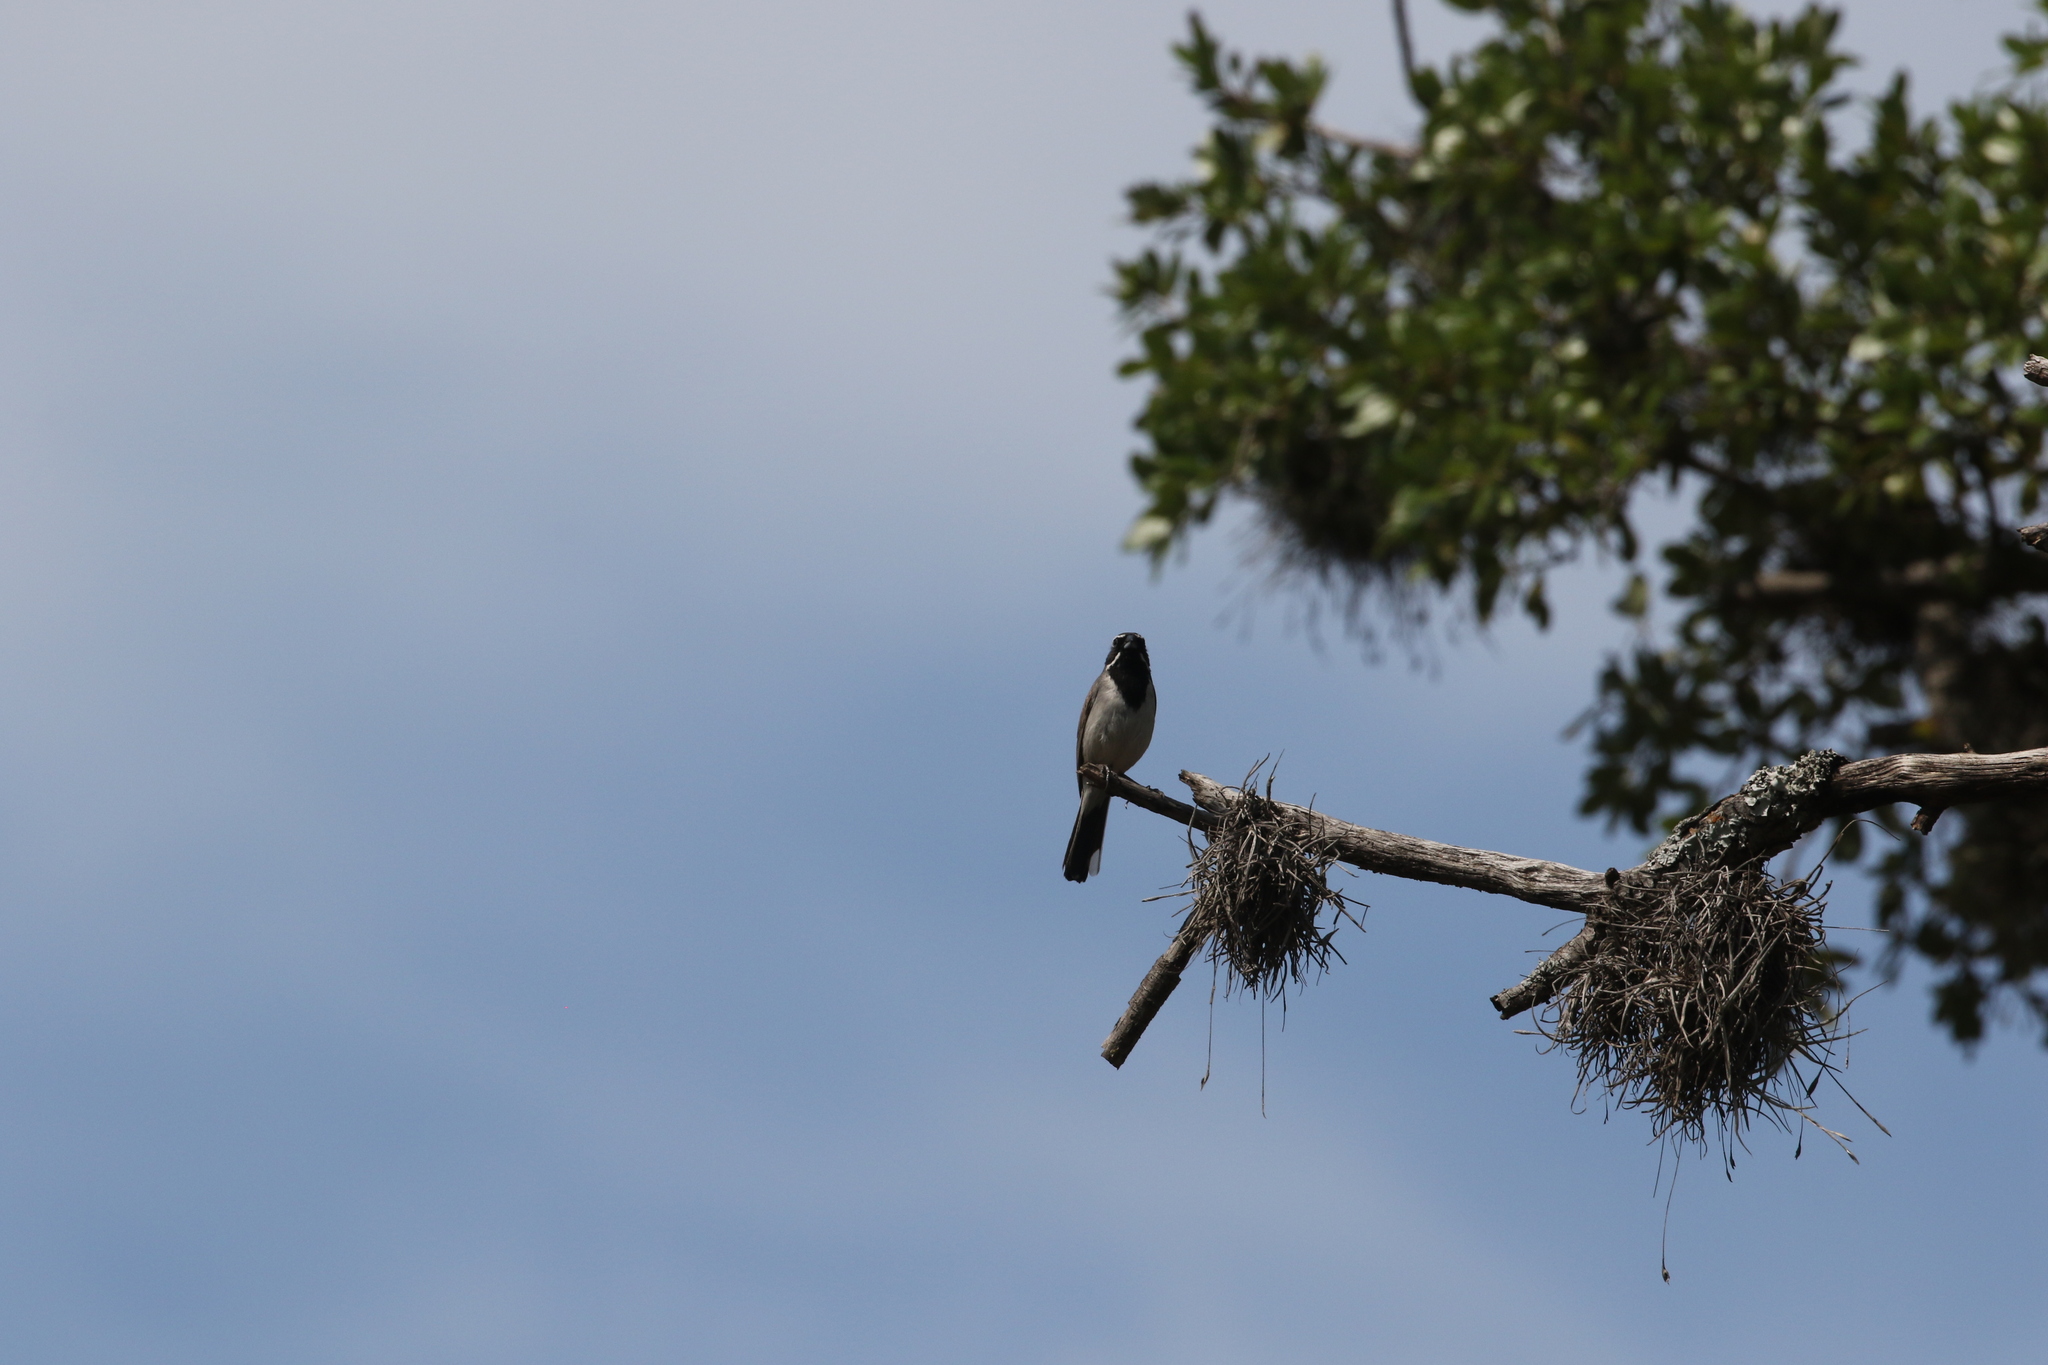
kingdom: Animalia
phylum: Chordata
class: Aves
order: Passeriformes
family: Passerellidae
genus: Amphispiza
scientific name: Amphispiza bilineata
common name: Black-throated sparrow
